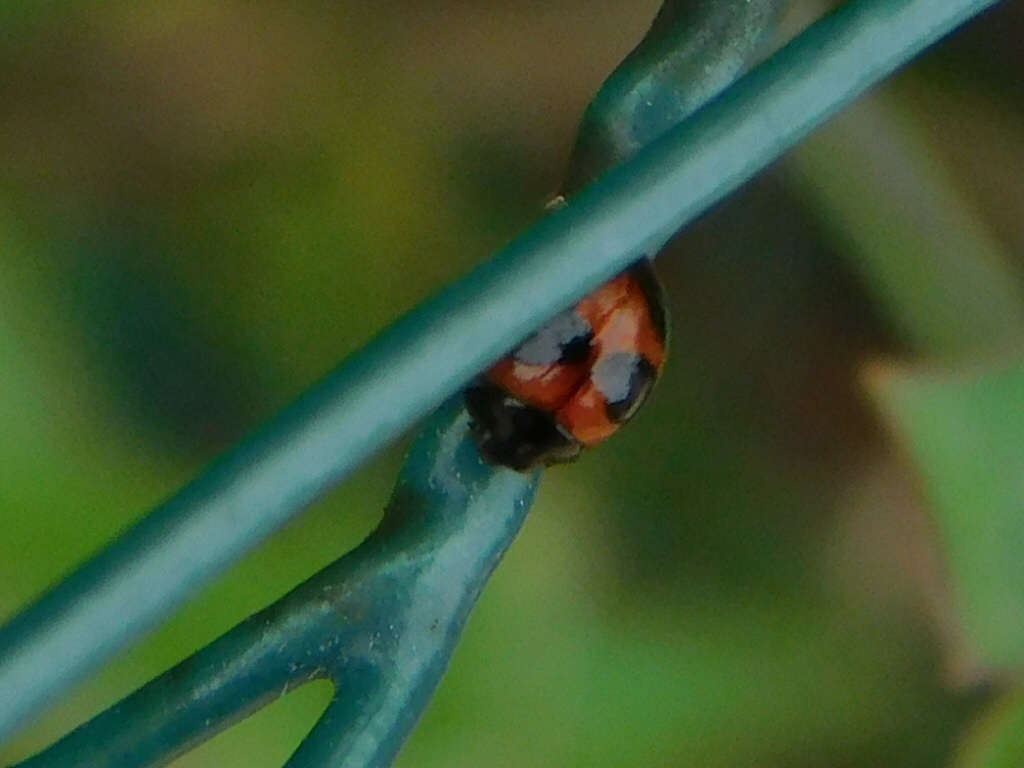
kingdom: Animalia
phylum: Arthropoda
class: Insecta
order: Coleoptera
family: Coccinellidae
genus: Exochomus
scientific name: Exochomus childreni
